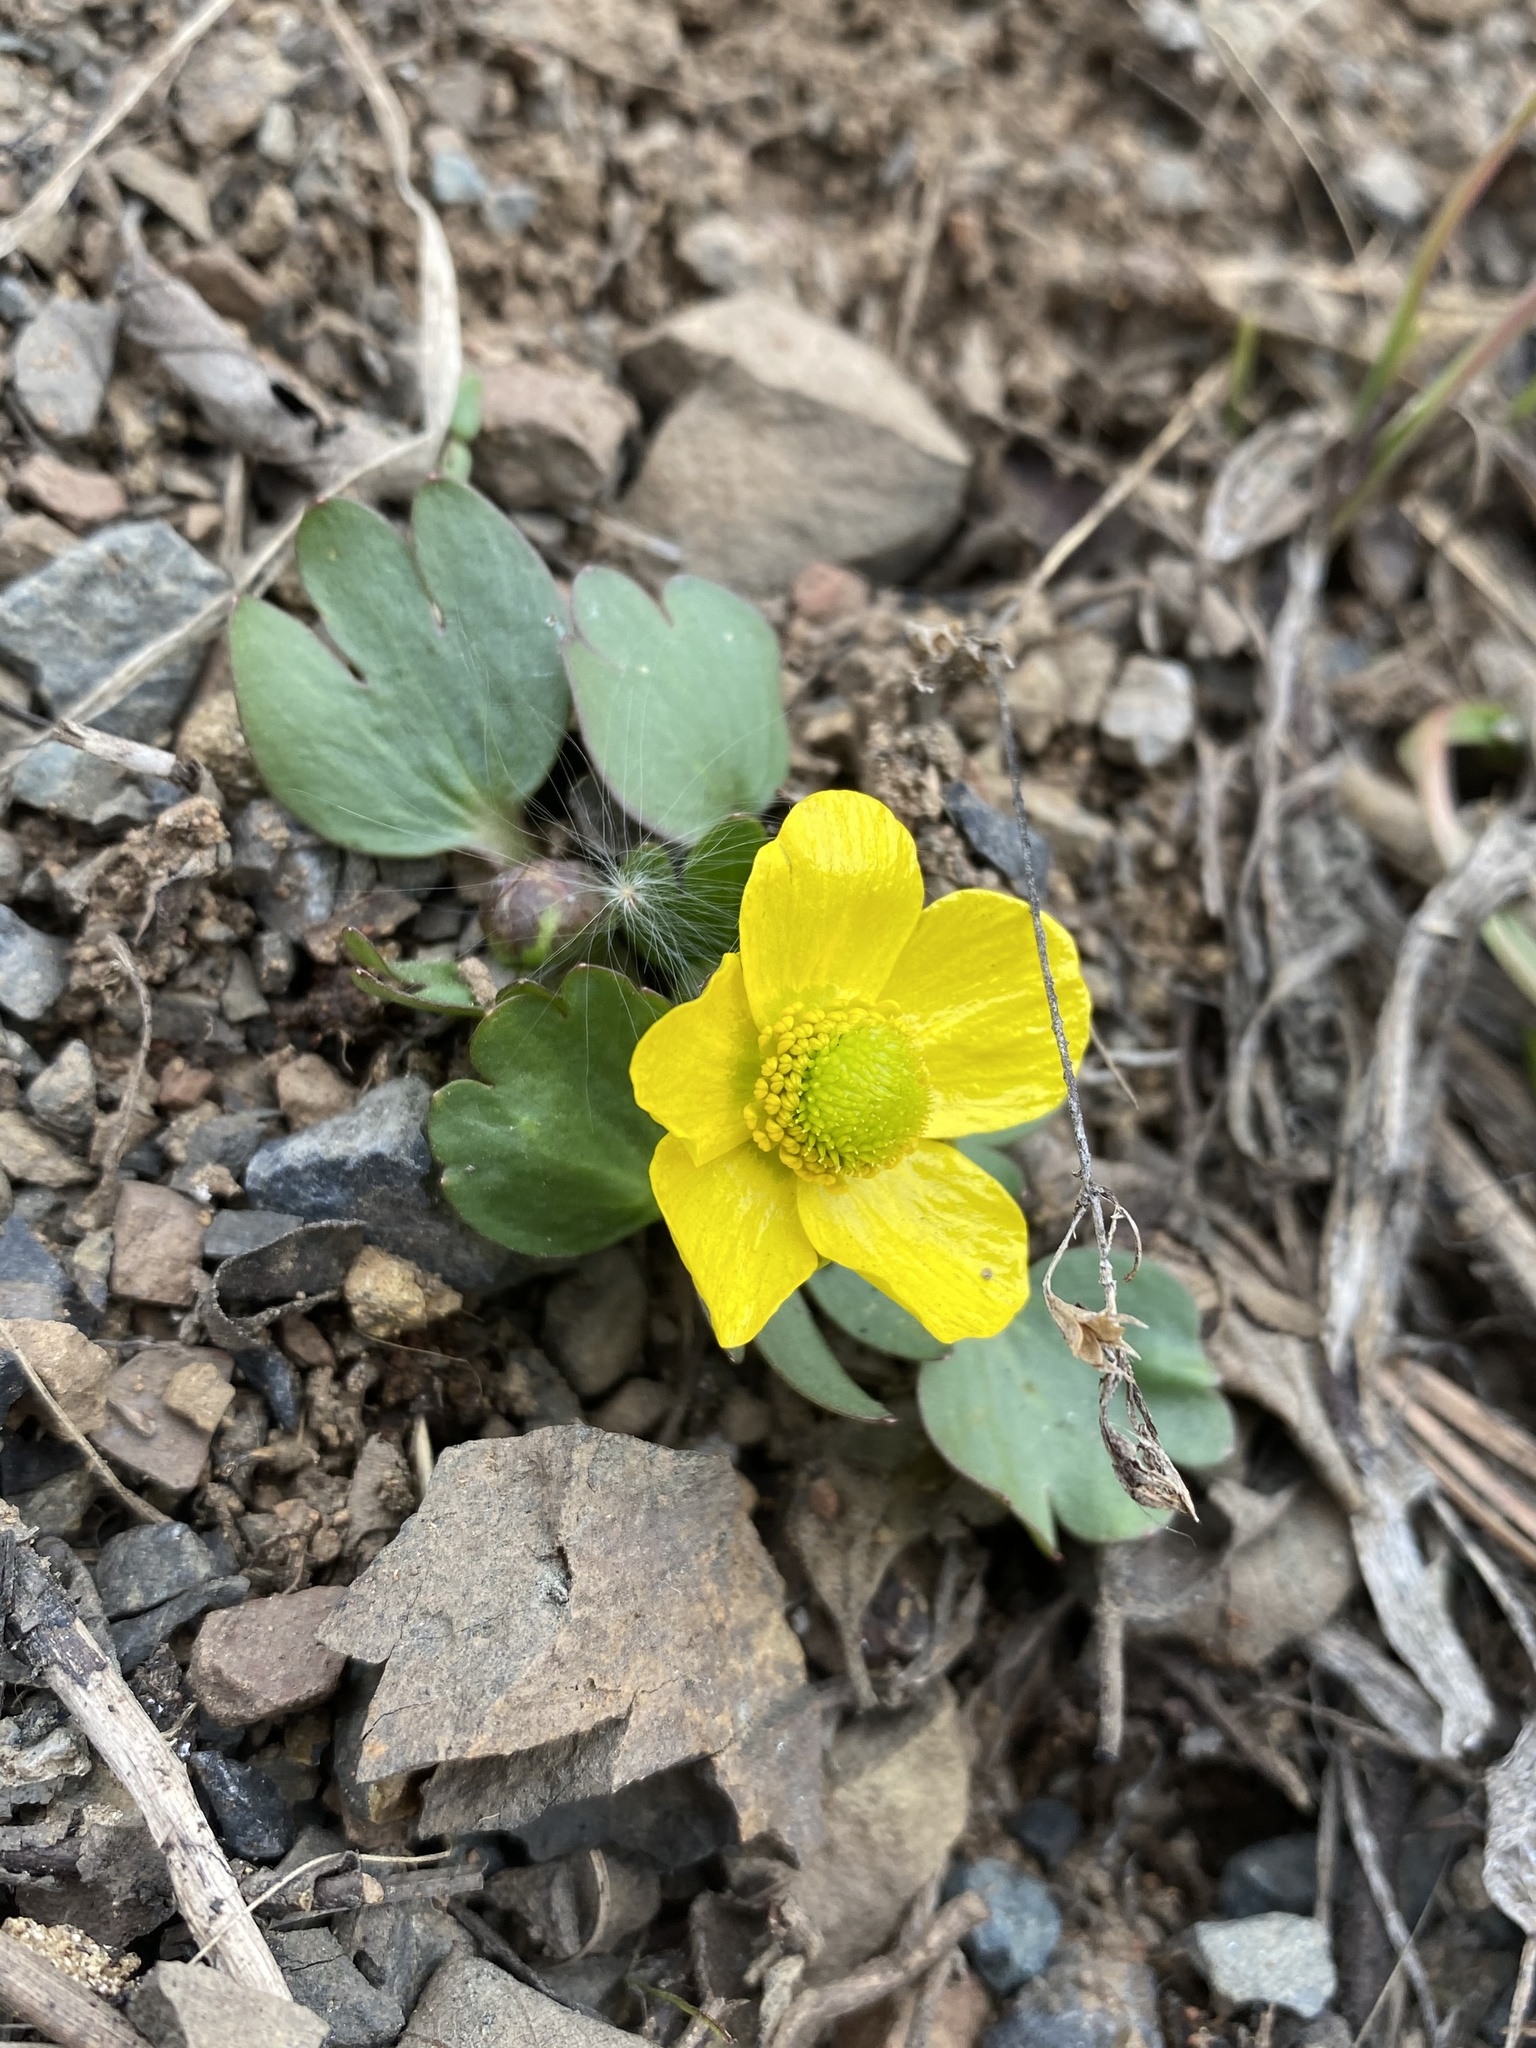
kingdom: Plantae
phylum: Tracheophyta
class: Magnoliopsida
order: Ranunculales
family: Ranunculaceae
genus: Ranunculus
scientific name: Ranunculus glaberrimus
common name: Sagebrush buttercup
